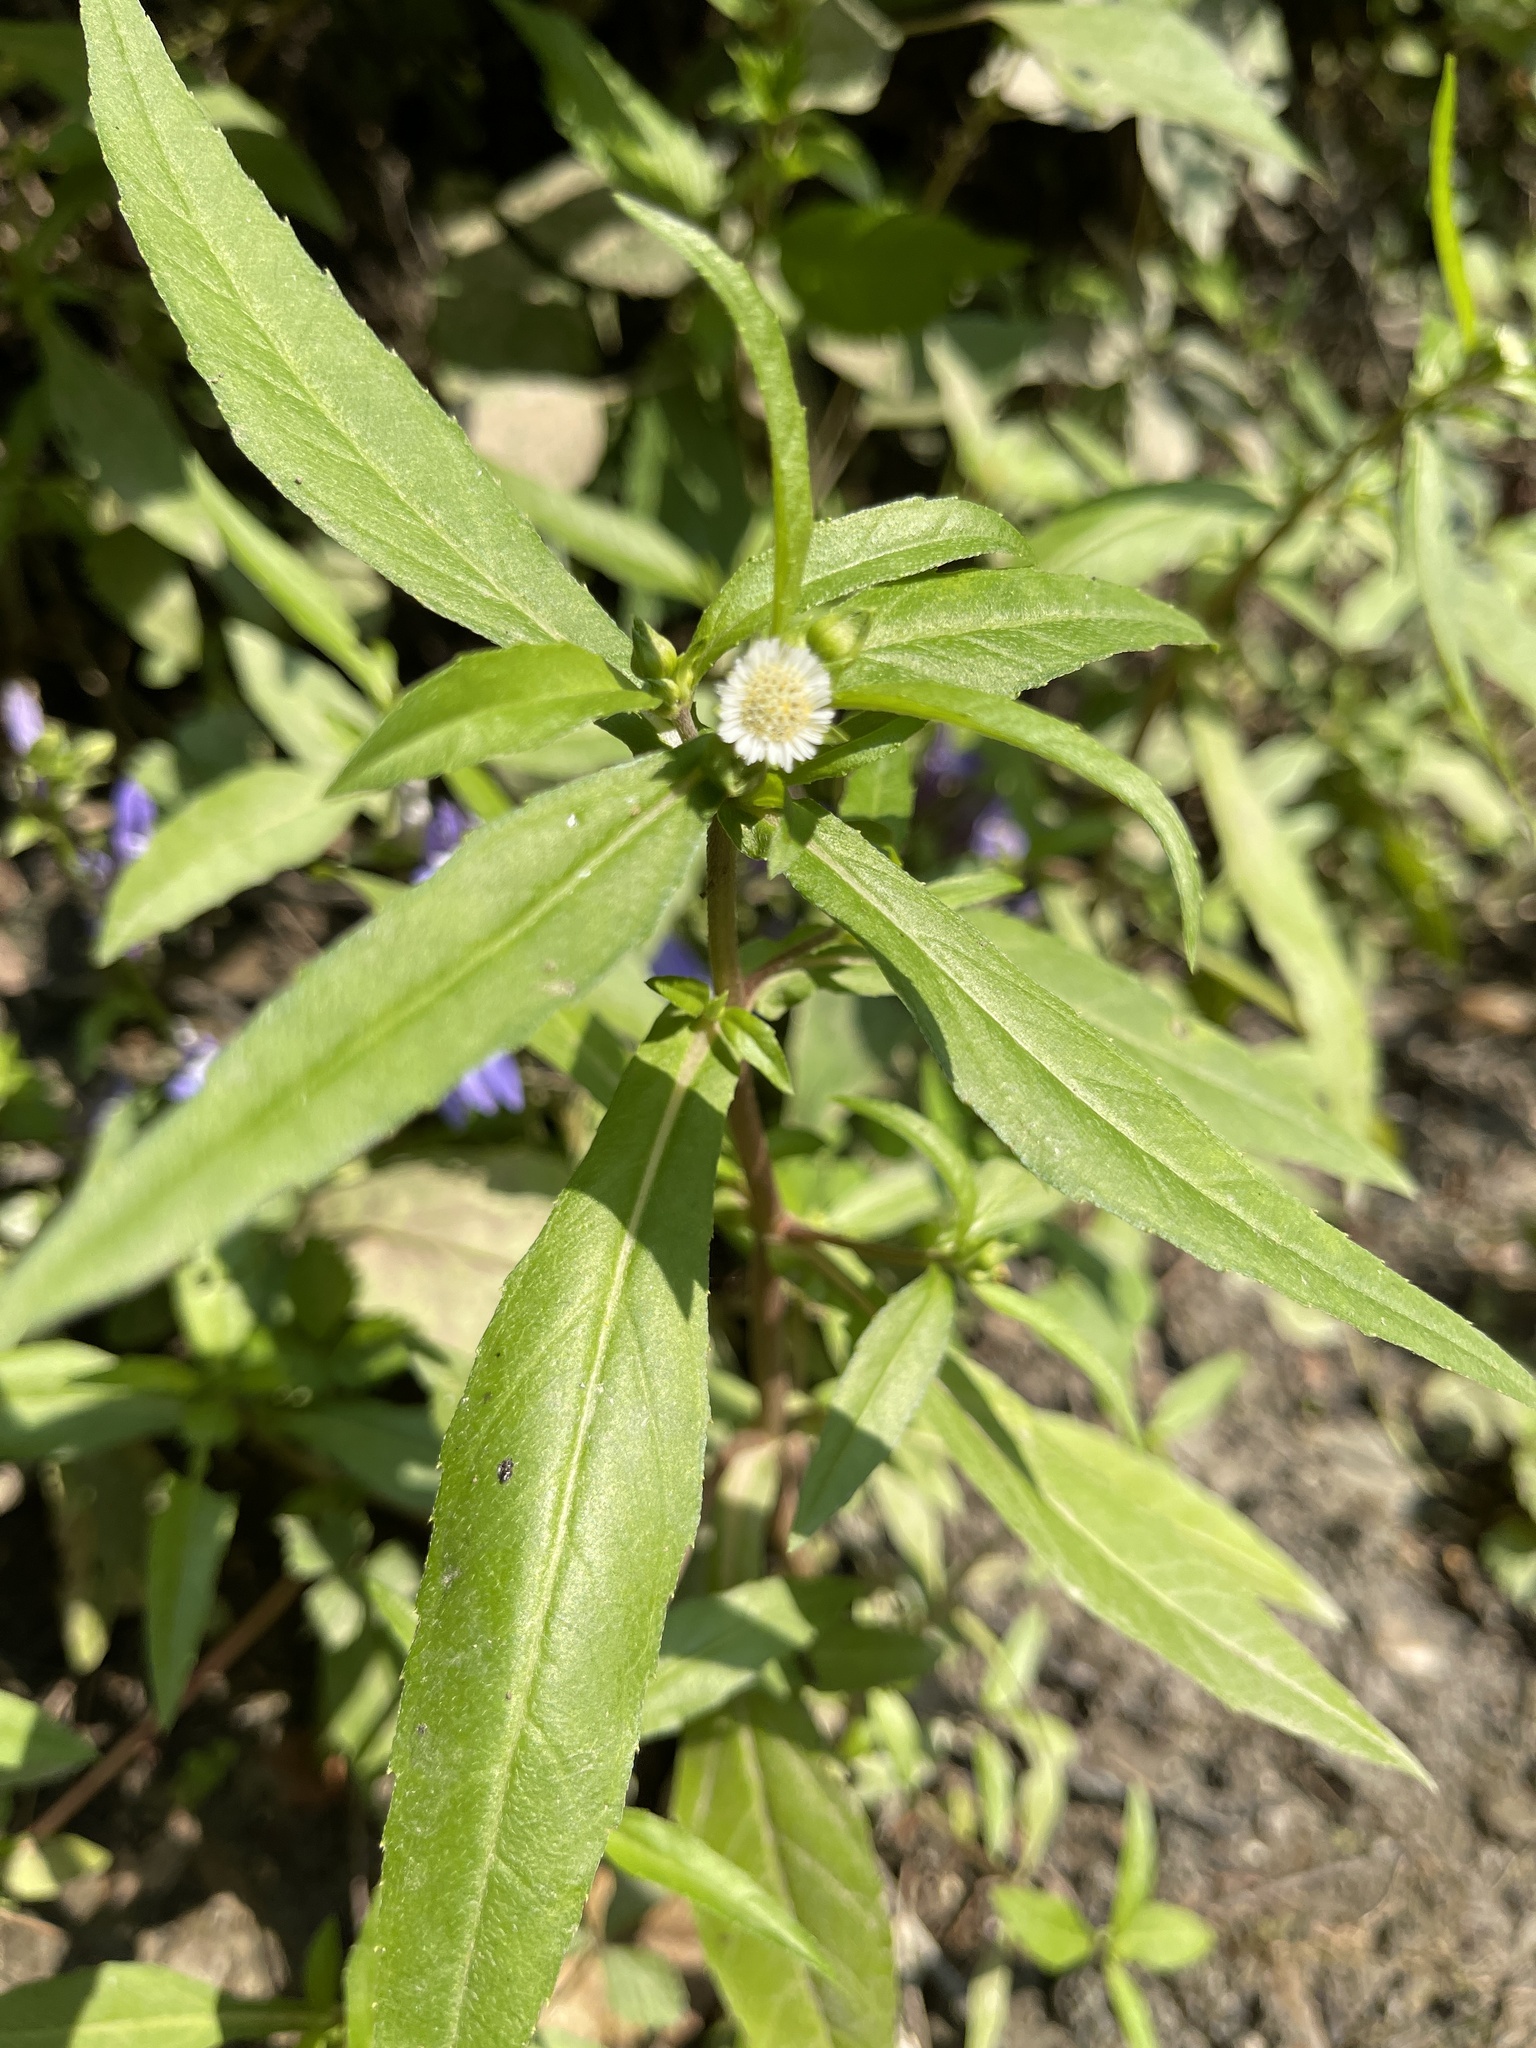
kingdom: Plantae
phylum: Tracheophyta
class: Magnoliopsida
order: Asterales
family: Asteraceae
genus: Eclipta
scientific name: Eclipta prostrata
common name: False daisy
